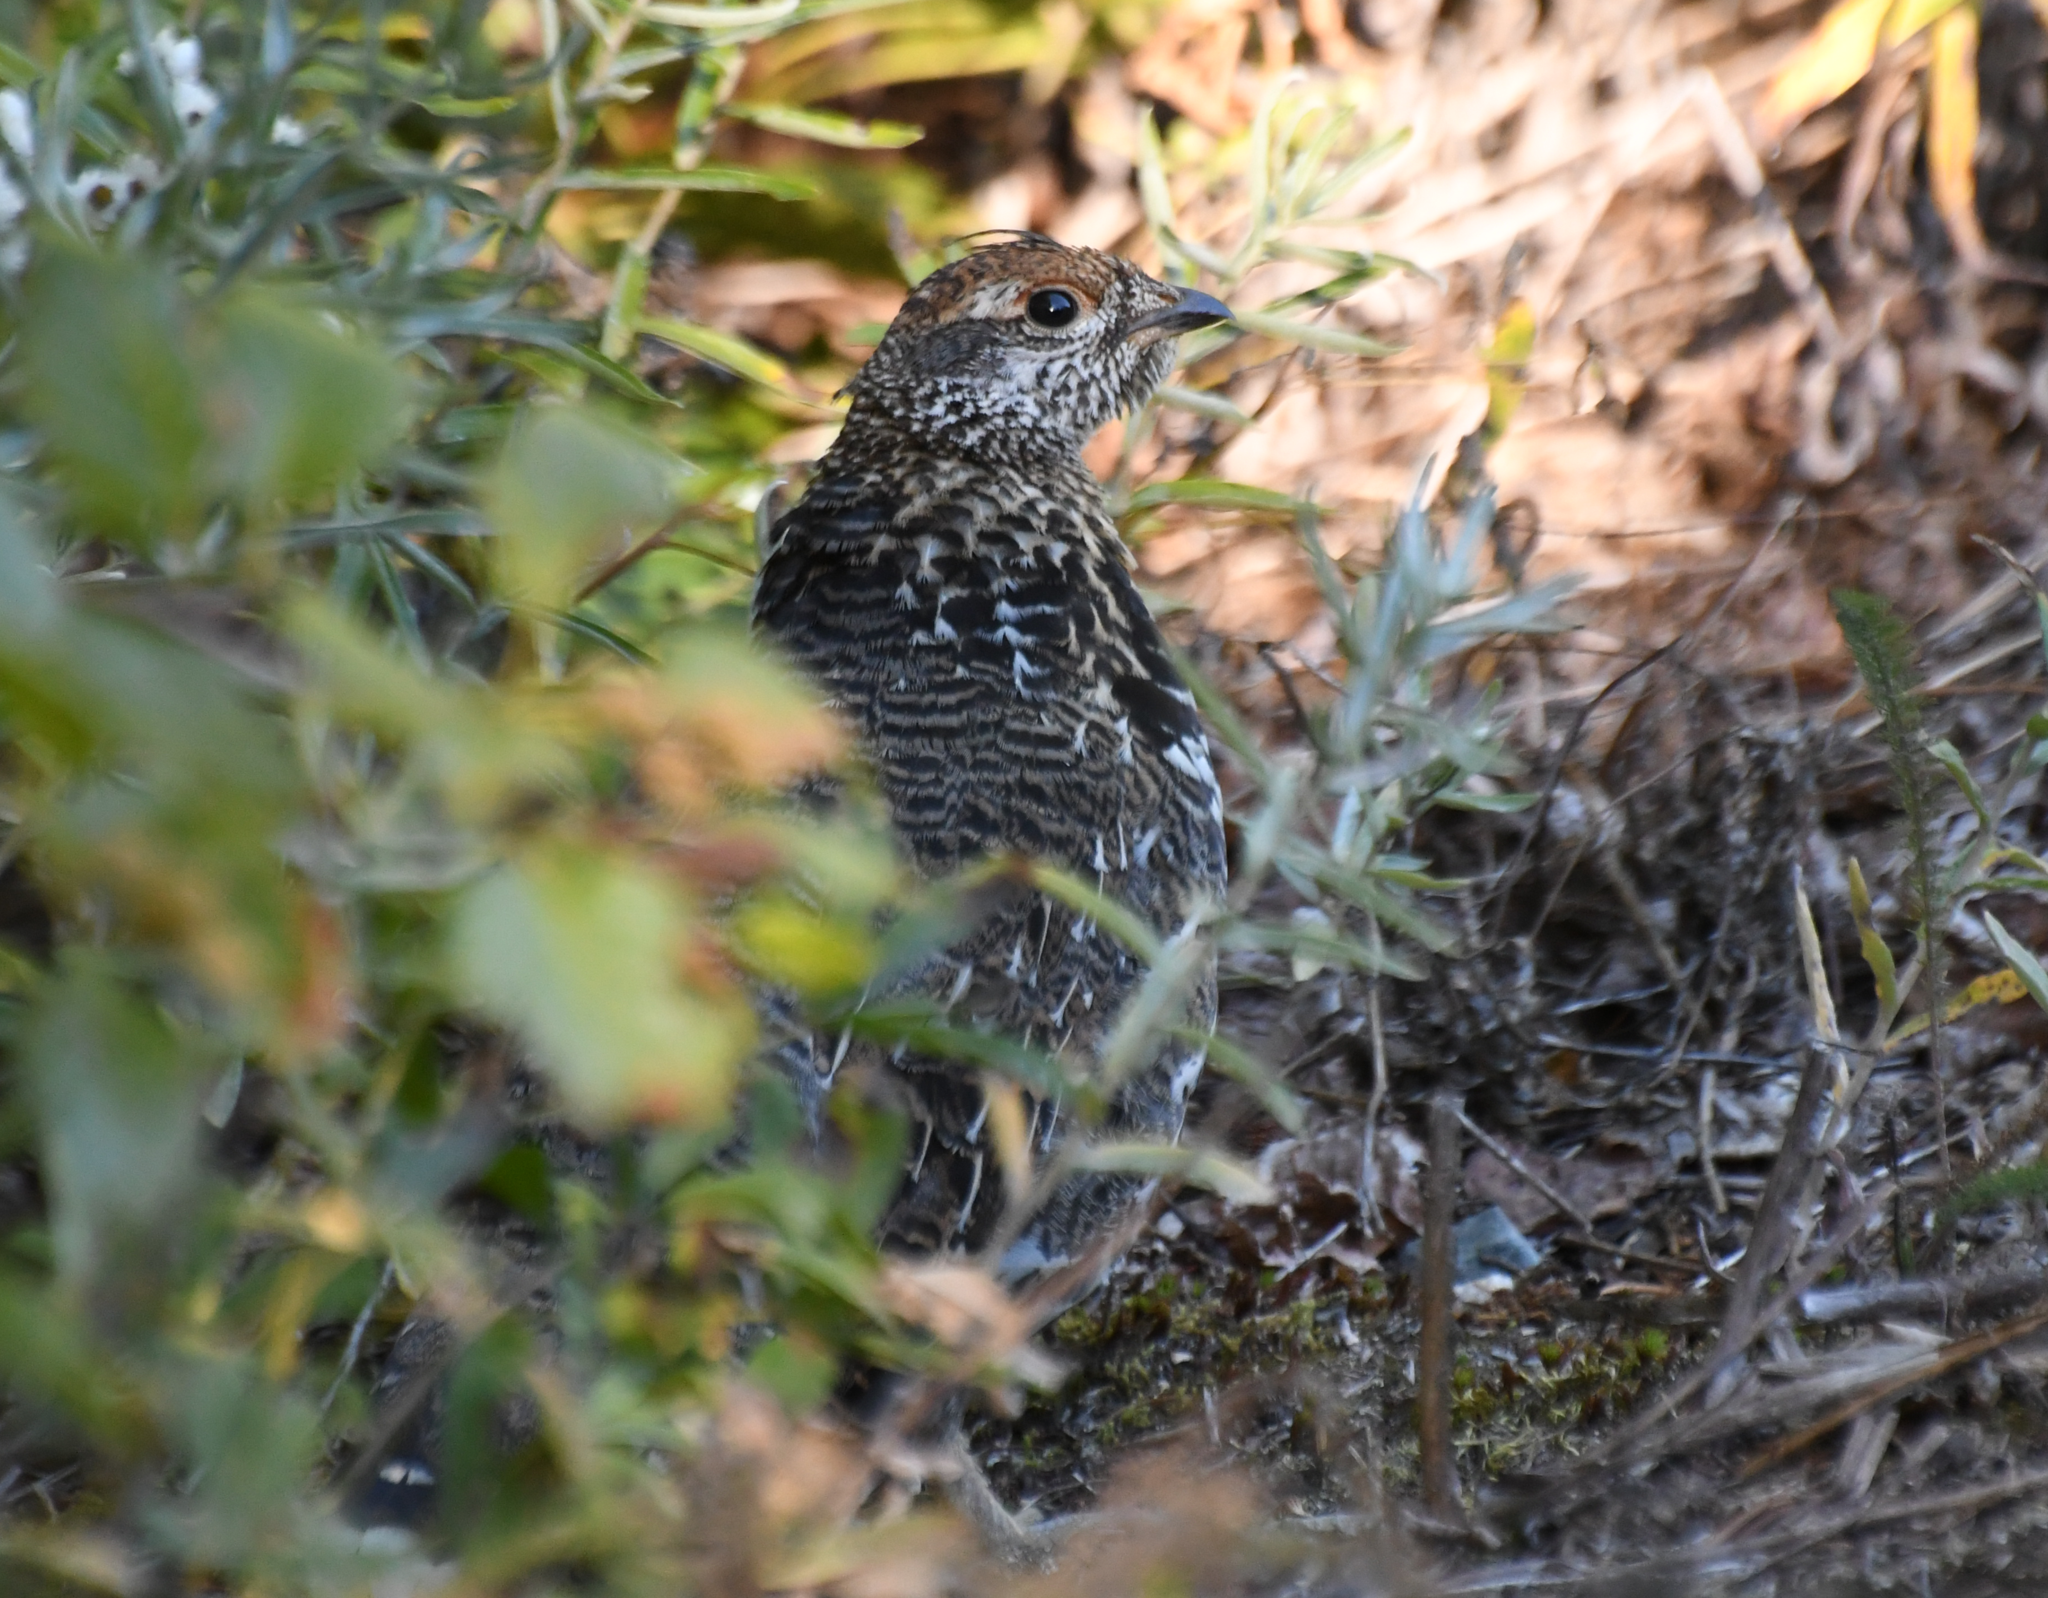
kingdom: Animalia
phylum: Chordata
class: Aves
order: Galliformes
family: Phasianidae
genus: Canachites
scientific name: Canachites canadensis
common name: Spruce grouse
